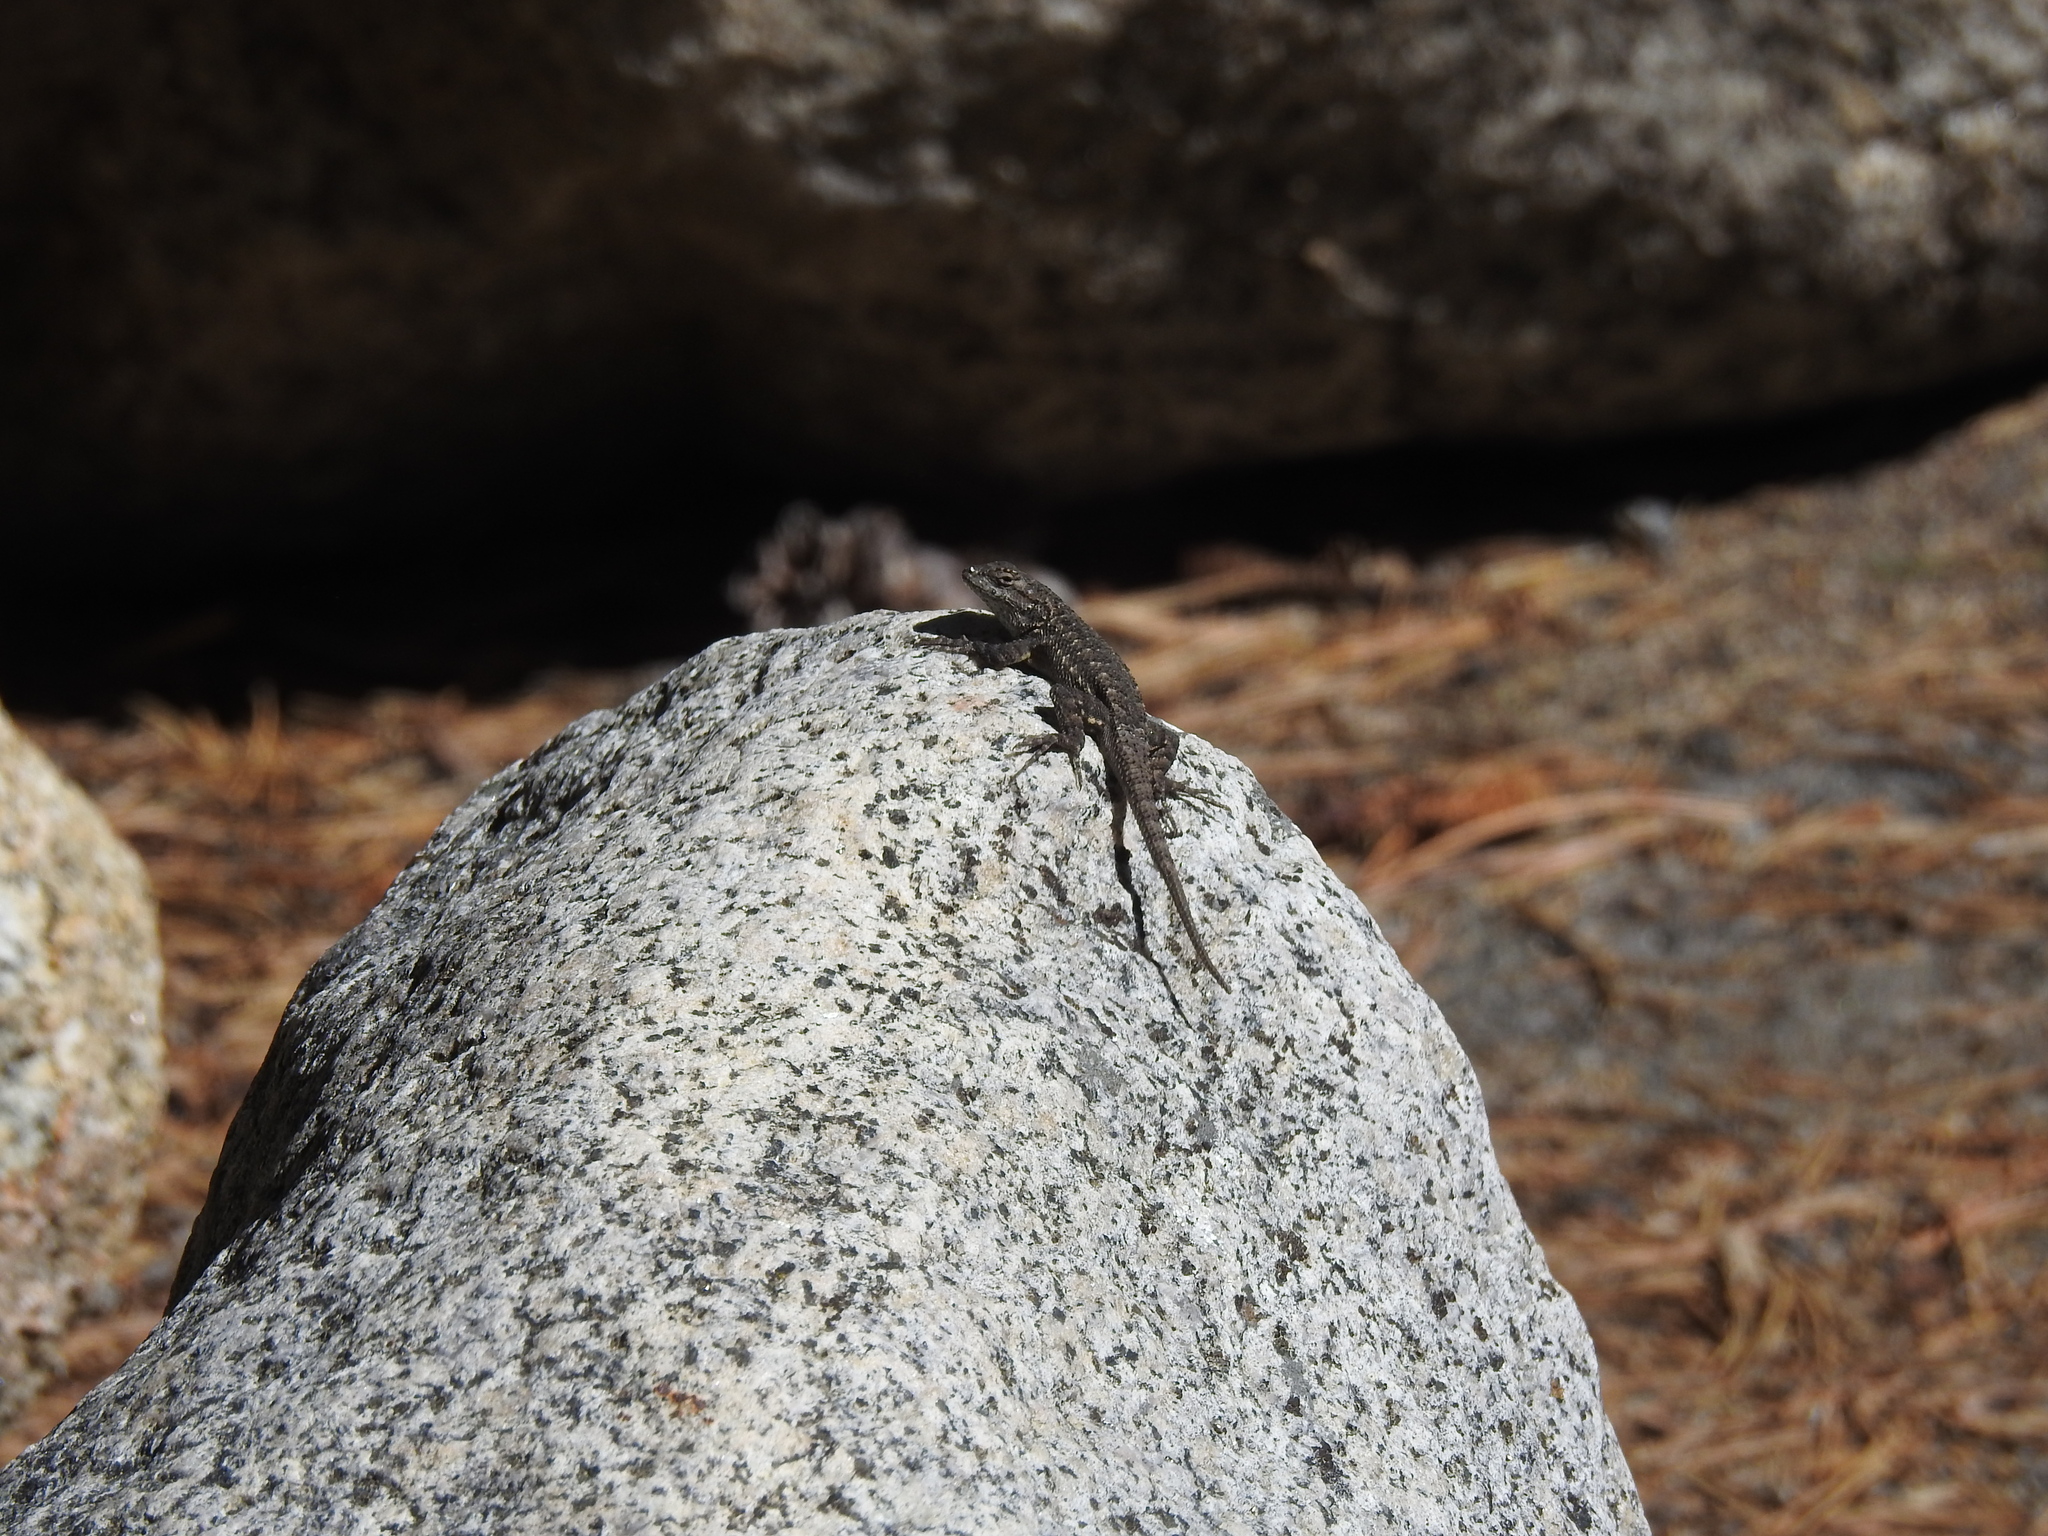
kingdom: Animalia
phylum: Chordata
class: Squamata
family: Phrynosomatidae
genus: Sceloporus
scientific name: Sceloporus occidentalis
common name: Western fence lizard
